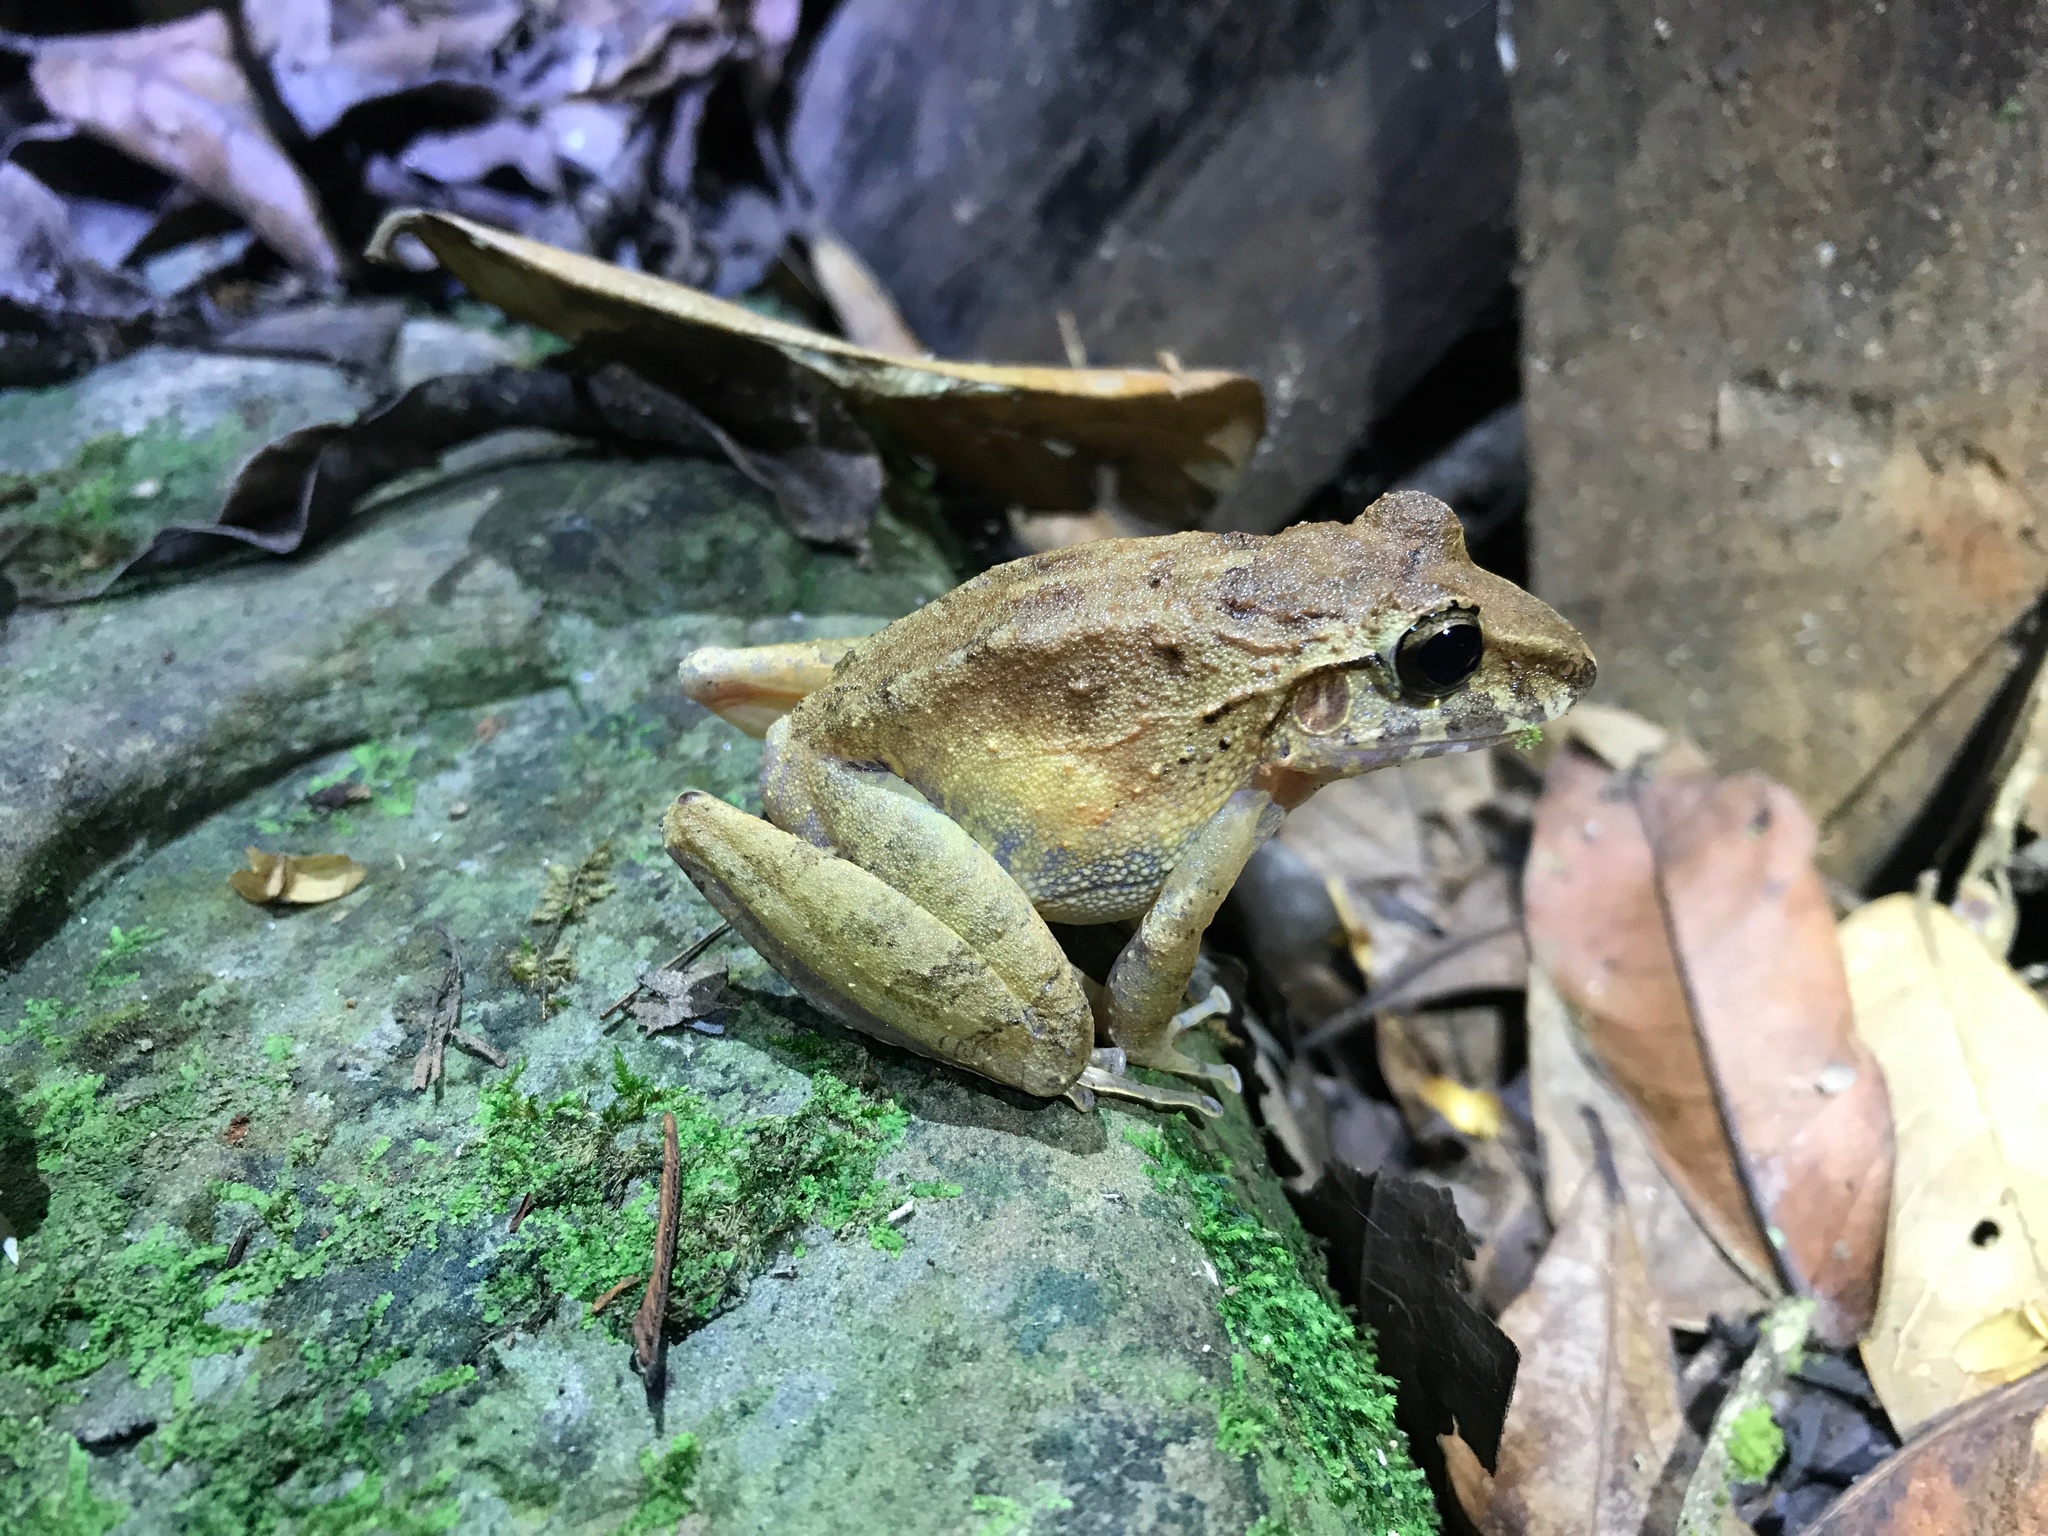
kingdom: Animalia
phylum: Chordata
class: Amphibia
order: Anura
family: Craugastoridae
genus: Craugastor
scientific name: Craugastor fitzingeri
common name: Fitzinger's robber frog
